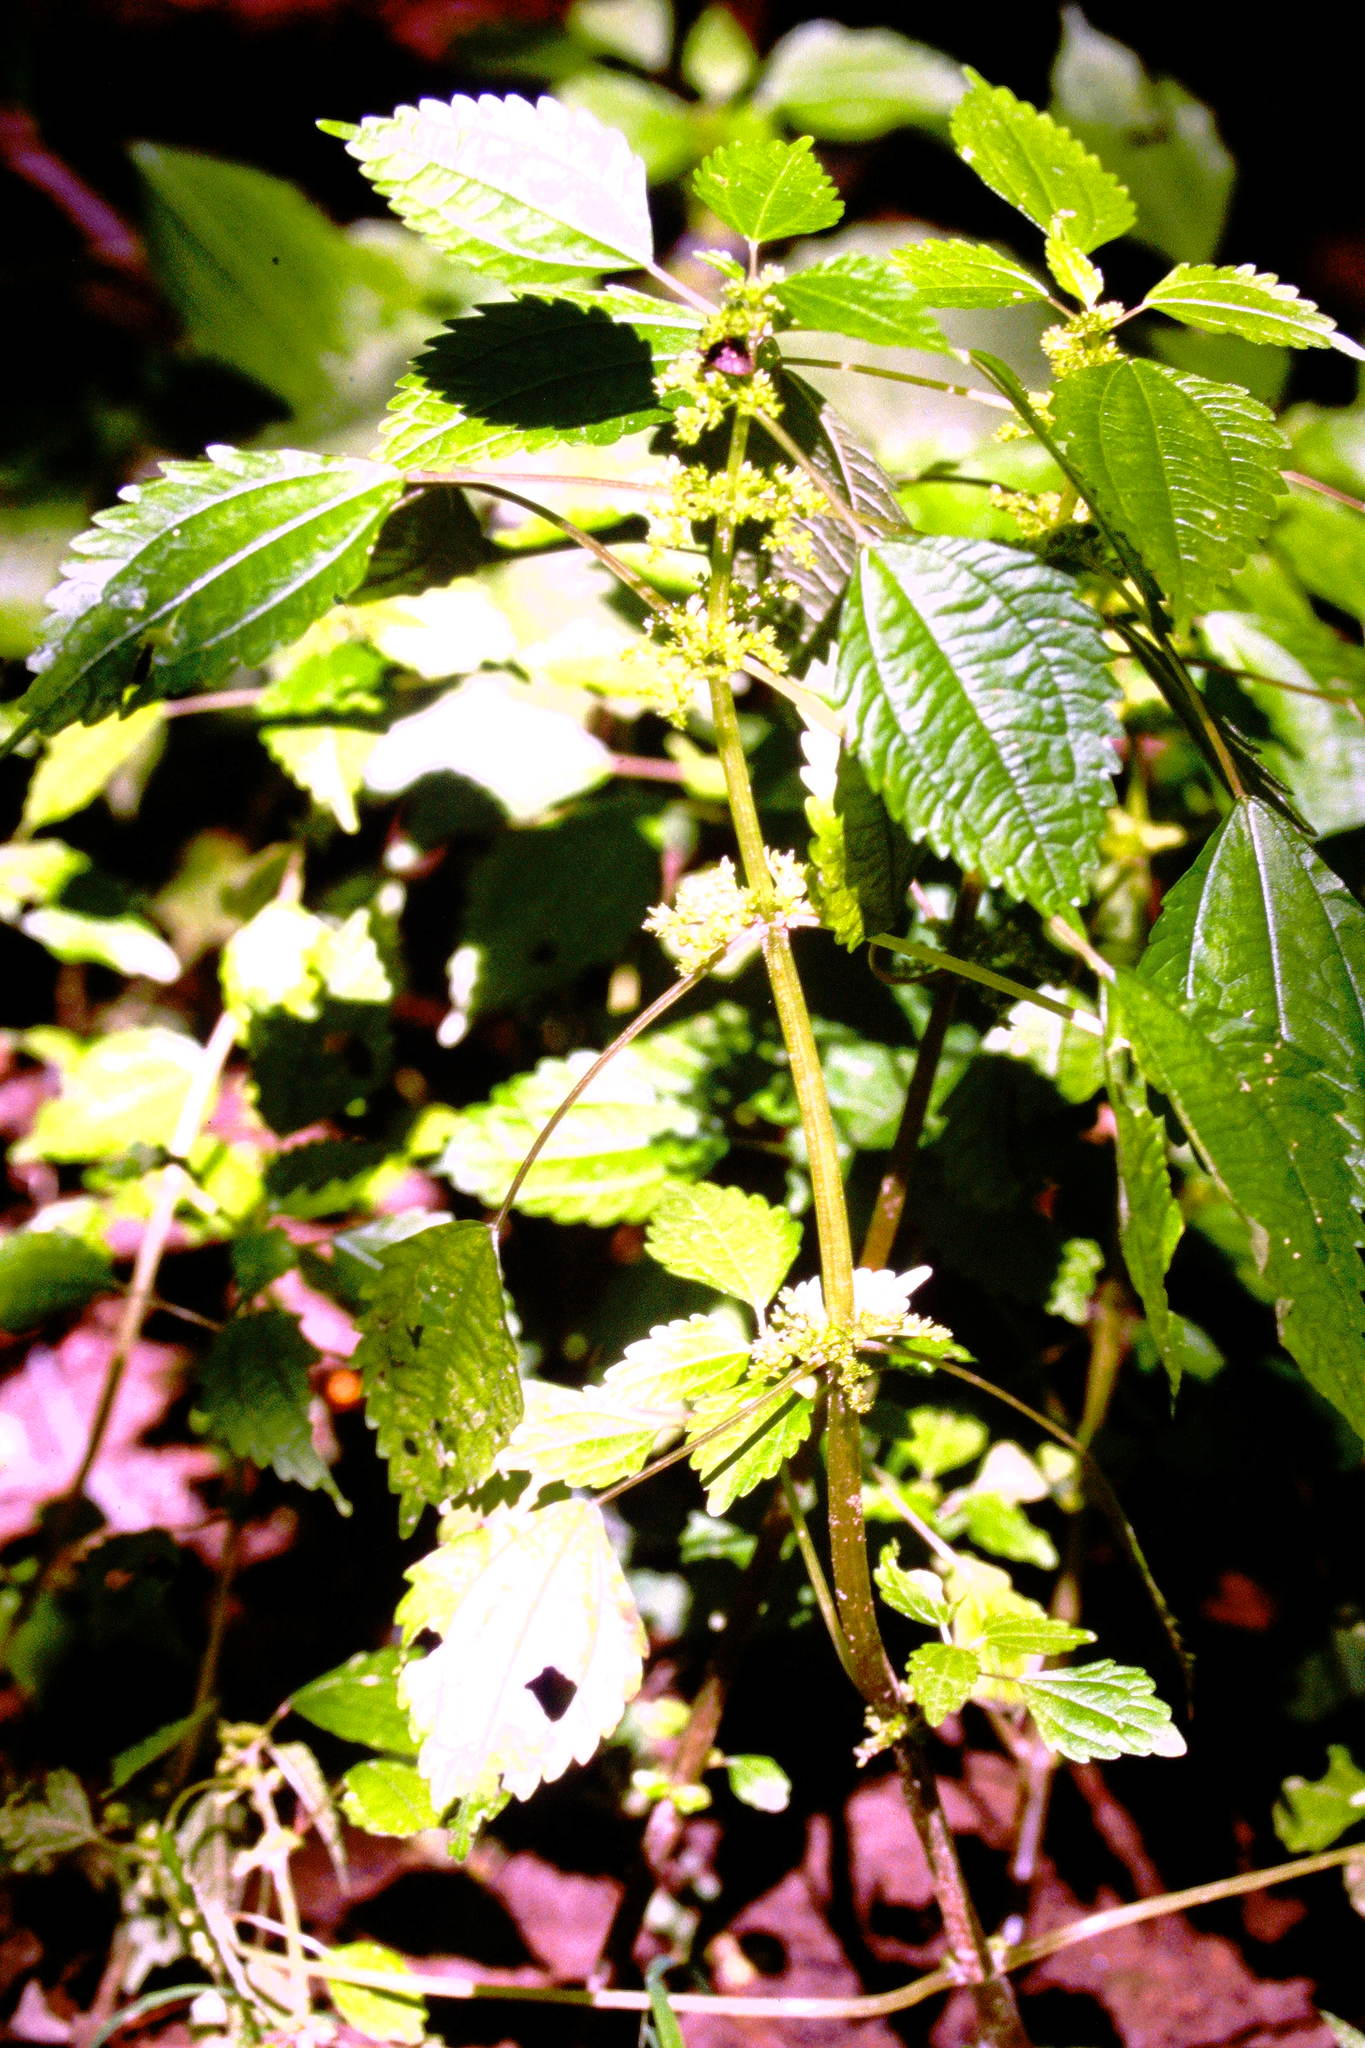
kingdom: Plantae
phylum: Tracheophyta
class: Magnoliopsida
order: Rosales
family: Urticaceae
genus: Pilea
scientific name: Pilea pumila
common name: Clearweed
